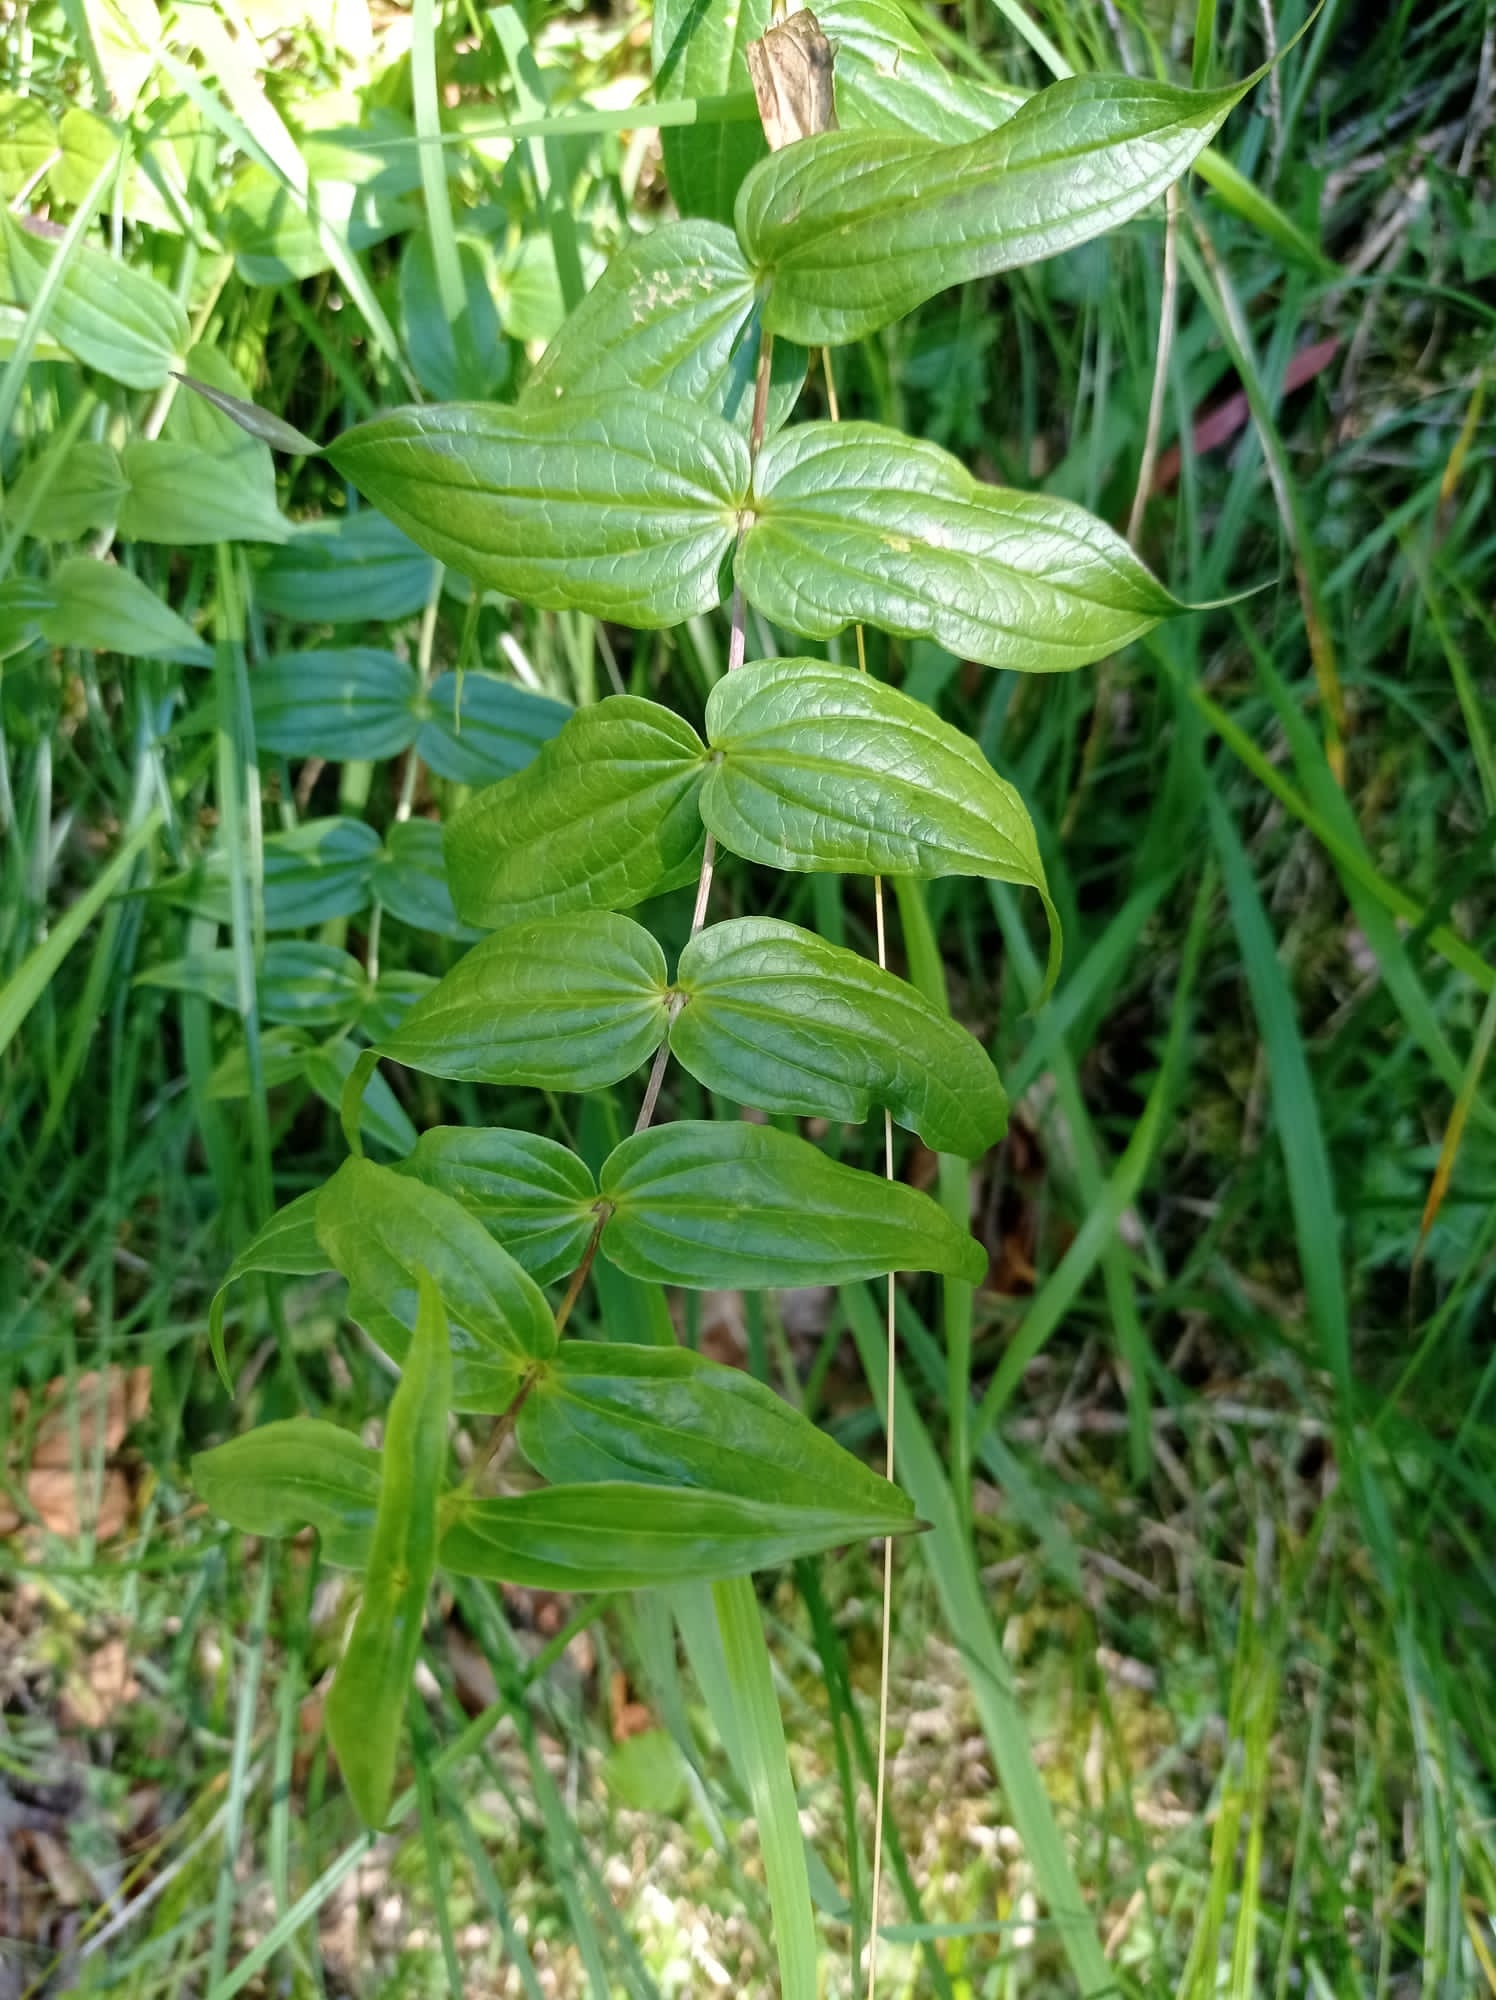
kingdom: Plantae
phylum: Tracheophyta
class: Magnoliopsida
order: Gentianales
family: Gentianaceae
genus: Gentiana
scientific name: Gentiana asclepiadea
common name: Willow gentian
